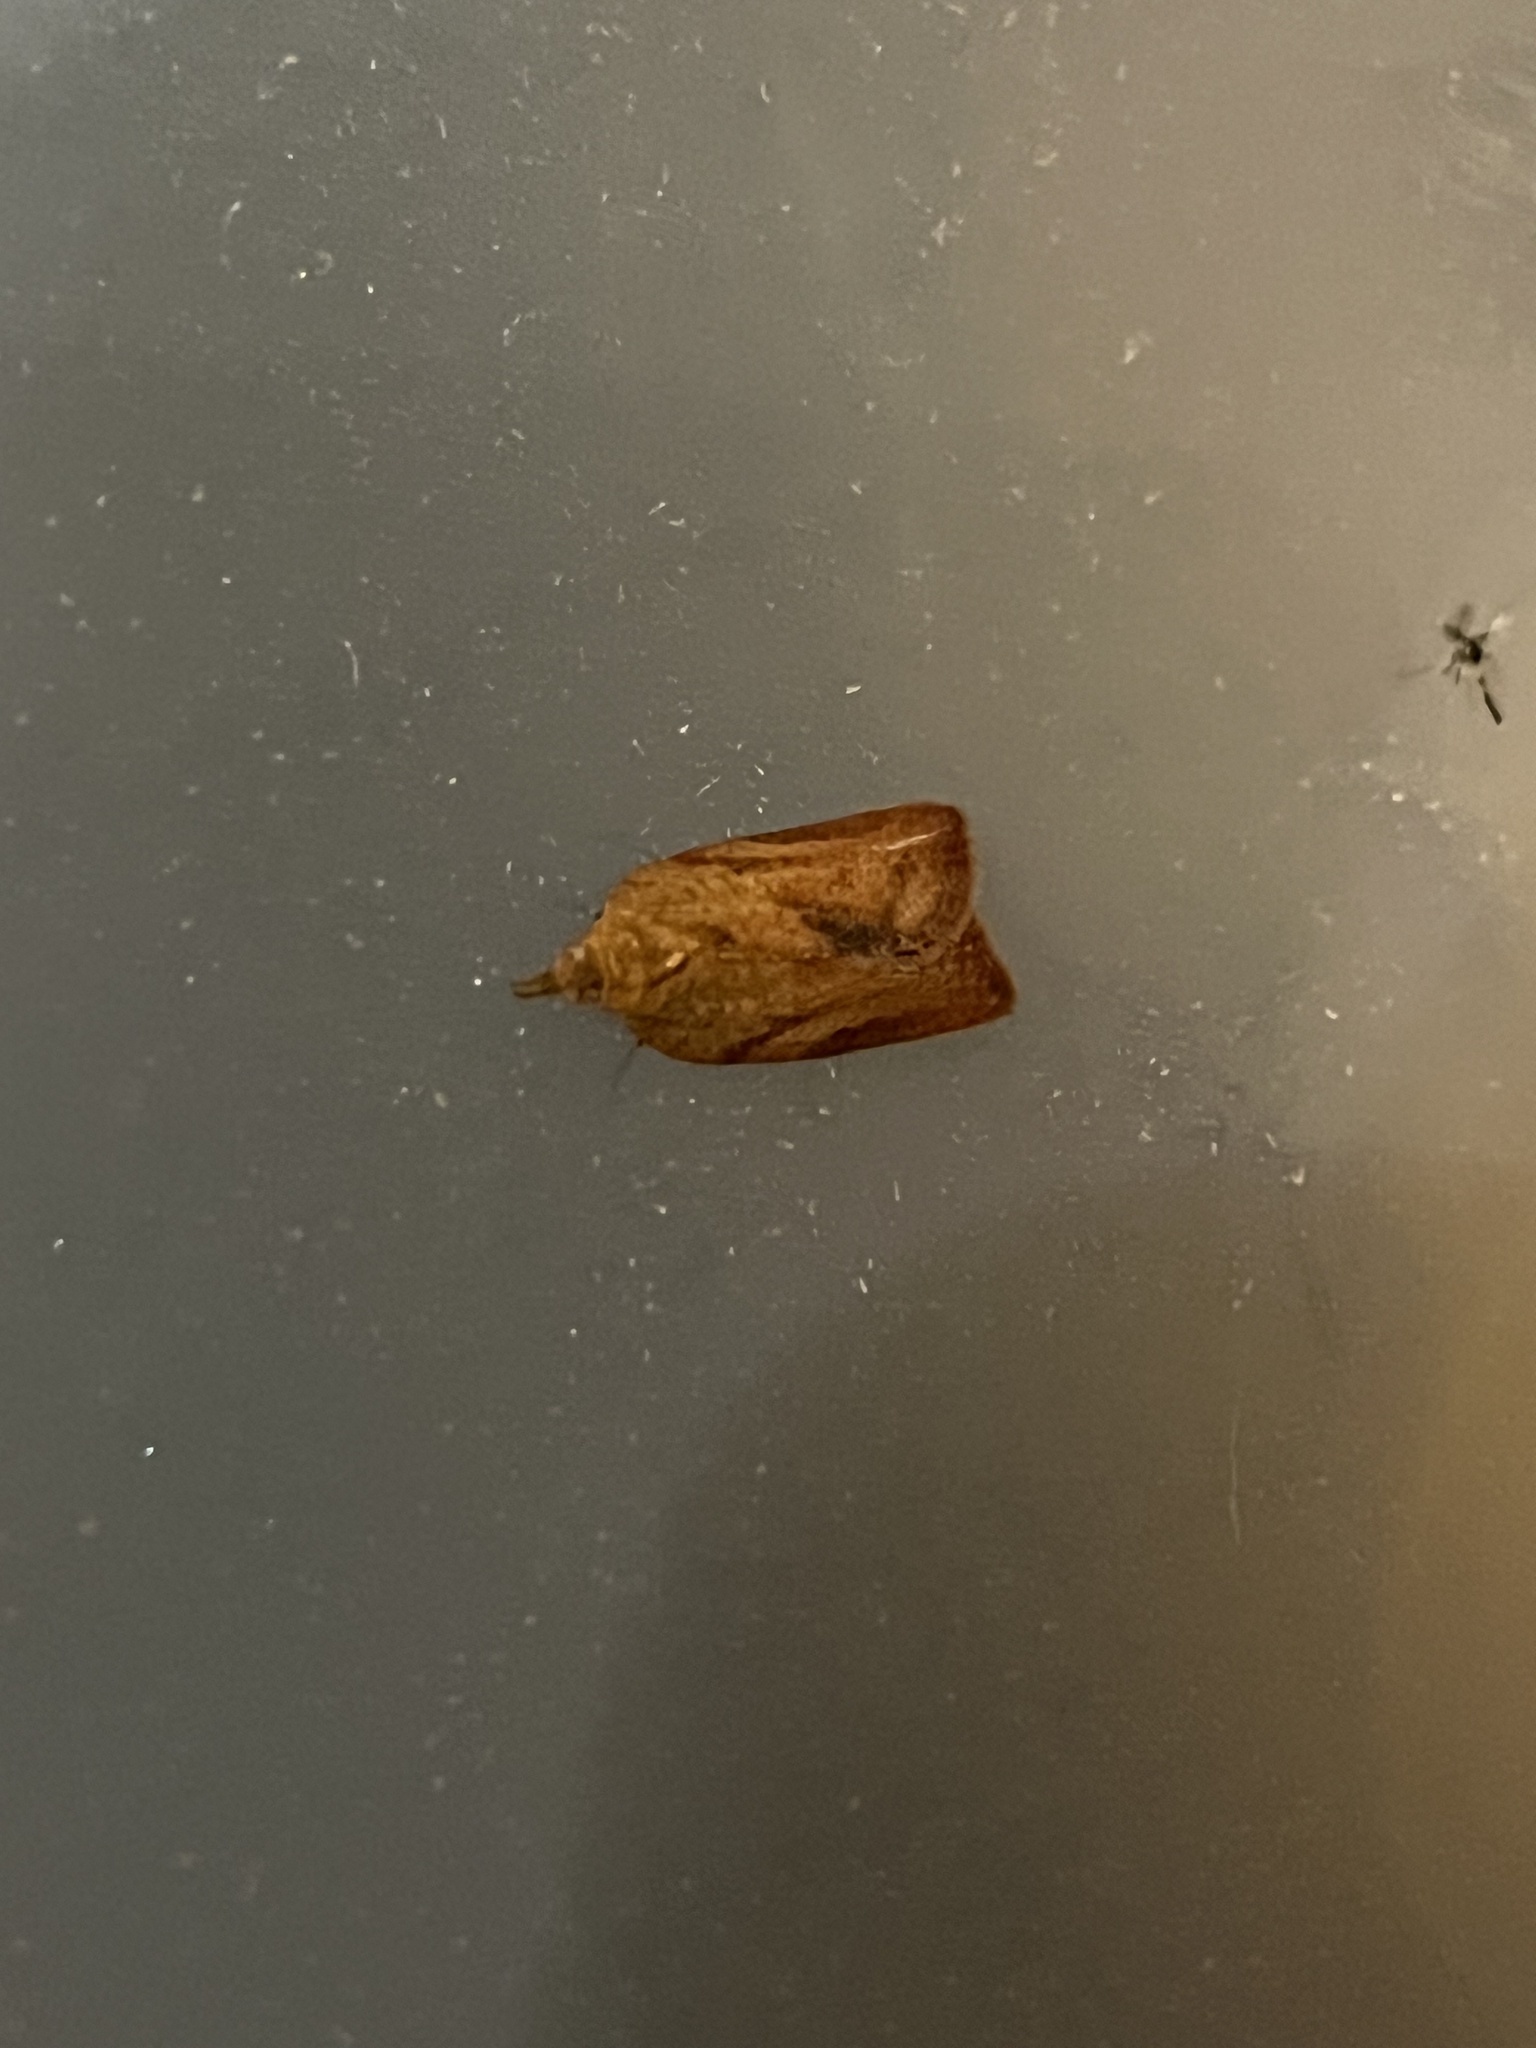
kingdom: Animalia
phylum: Arthropoda
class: Insecta
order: Lepidoptera
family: Tortricidae
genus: Epiphyas
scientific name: Epiphyas postvittana
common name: Light brown apple moth
